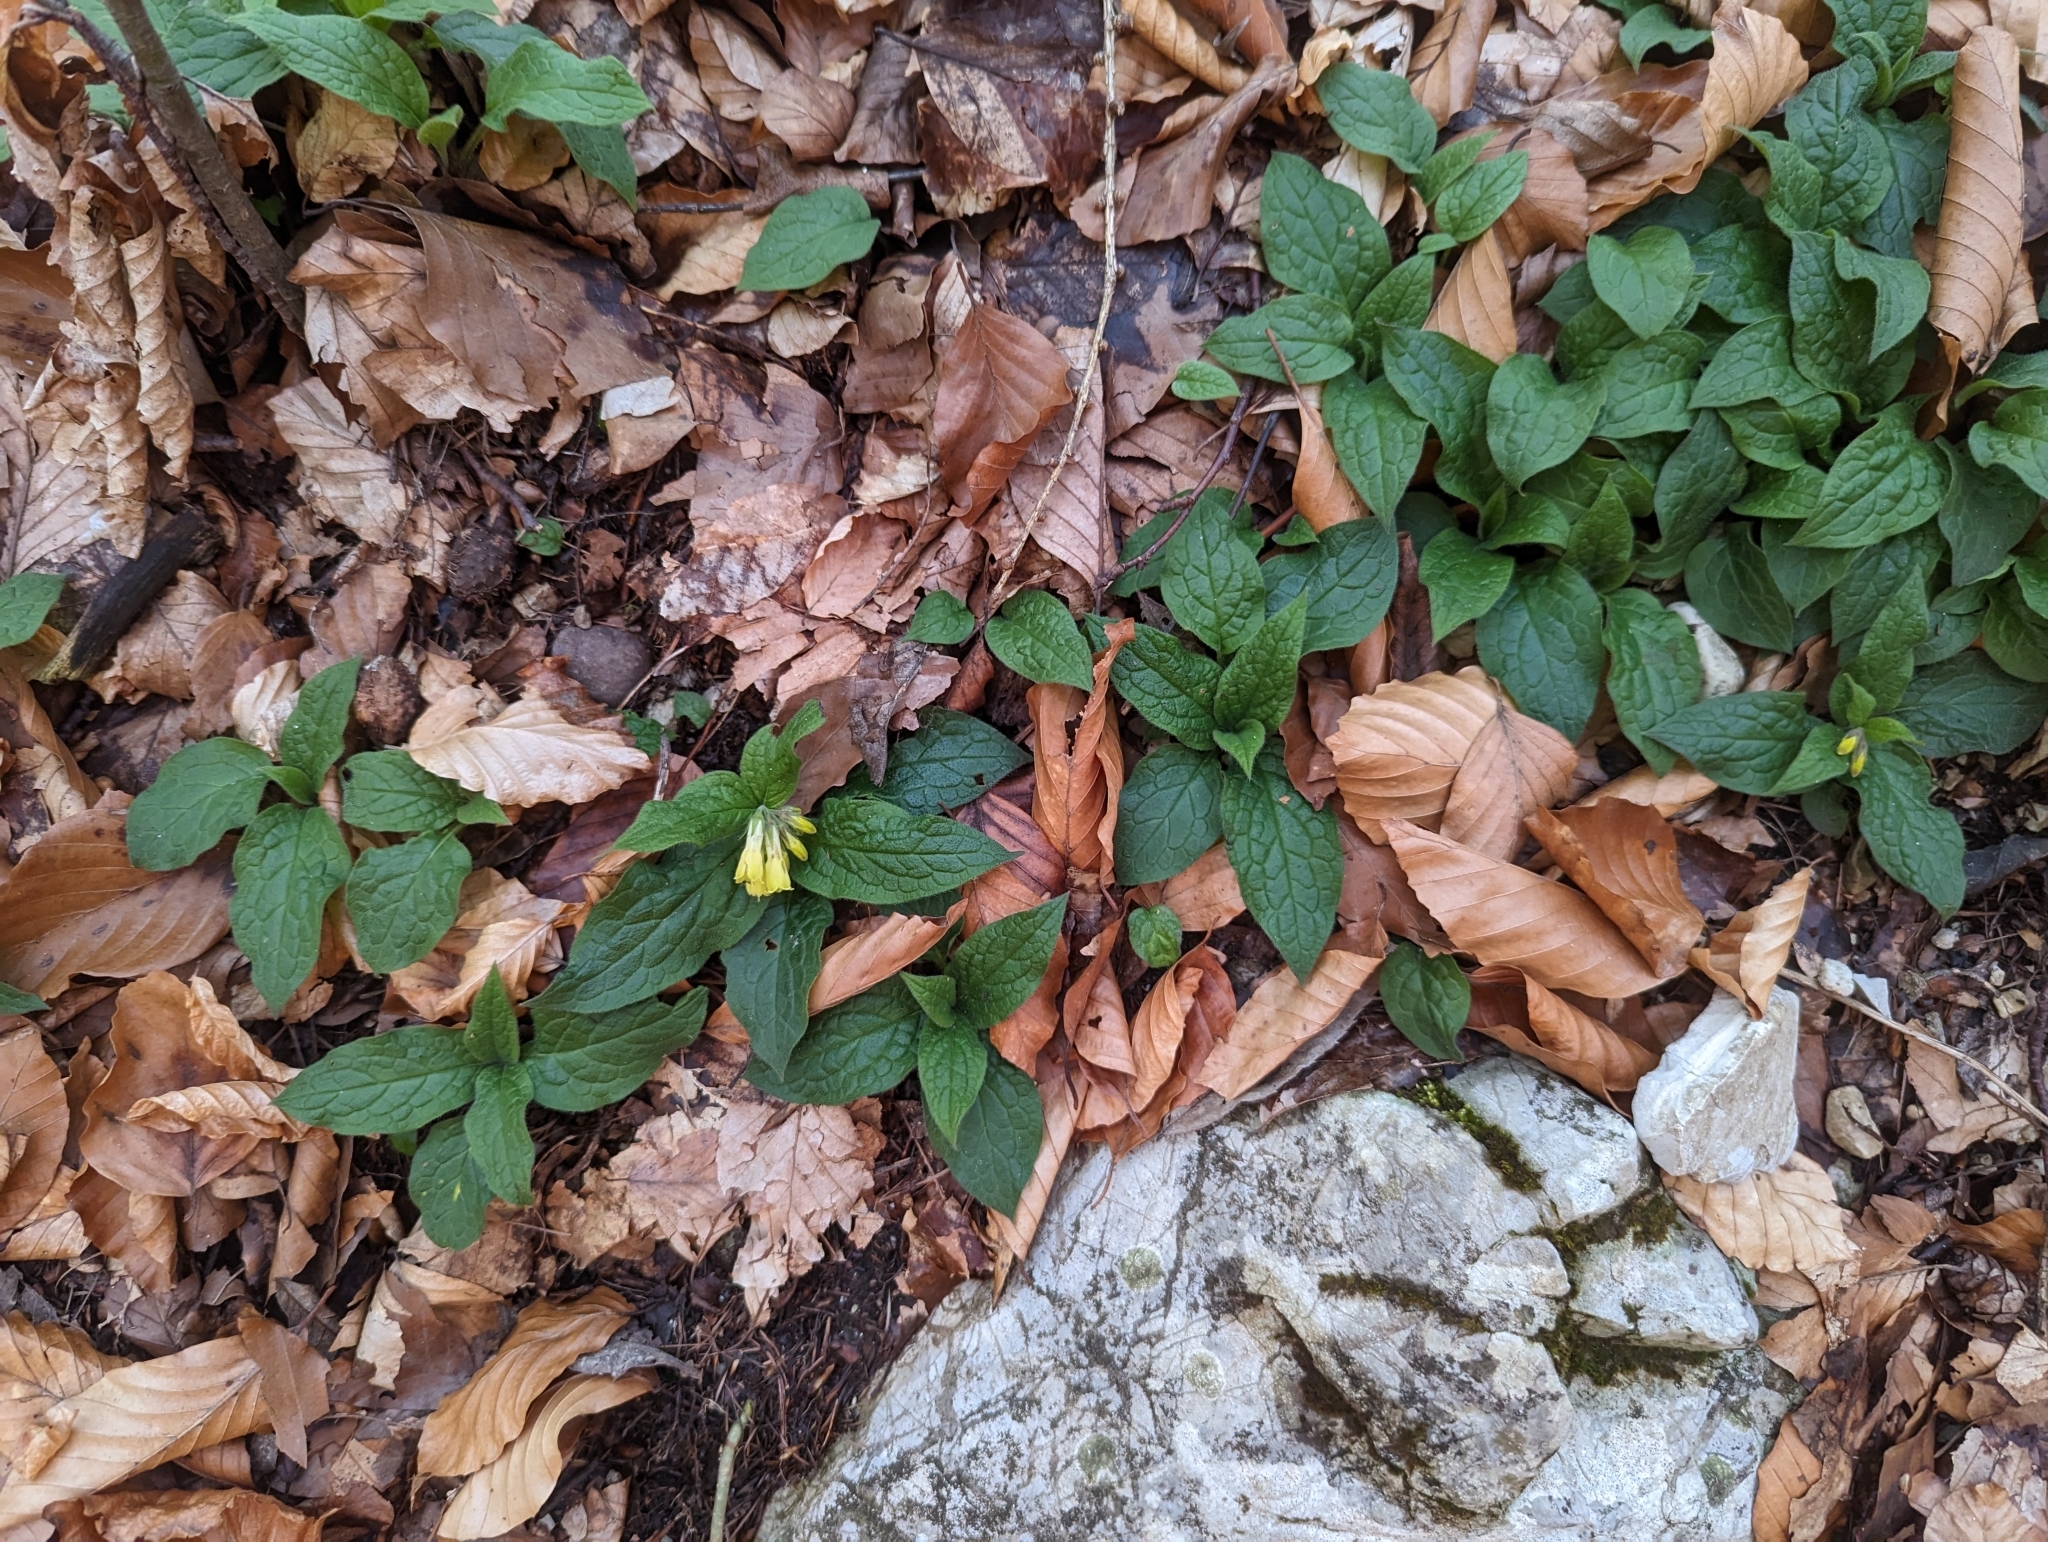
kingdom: Plantae
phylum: Tracheophyta
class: Magnoliopsida
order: Boraginales
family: Boraginaceae
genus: Symphytum
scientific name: Symphytum tuberosum
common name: Tuberous comfrey
